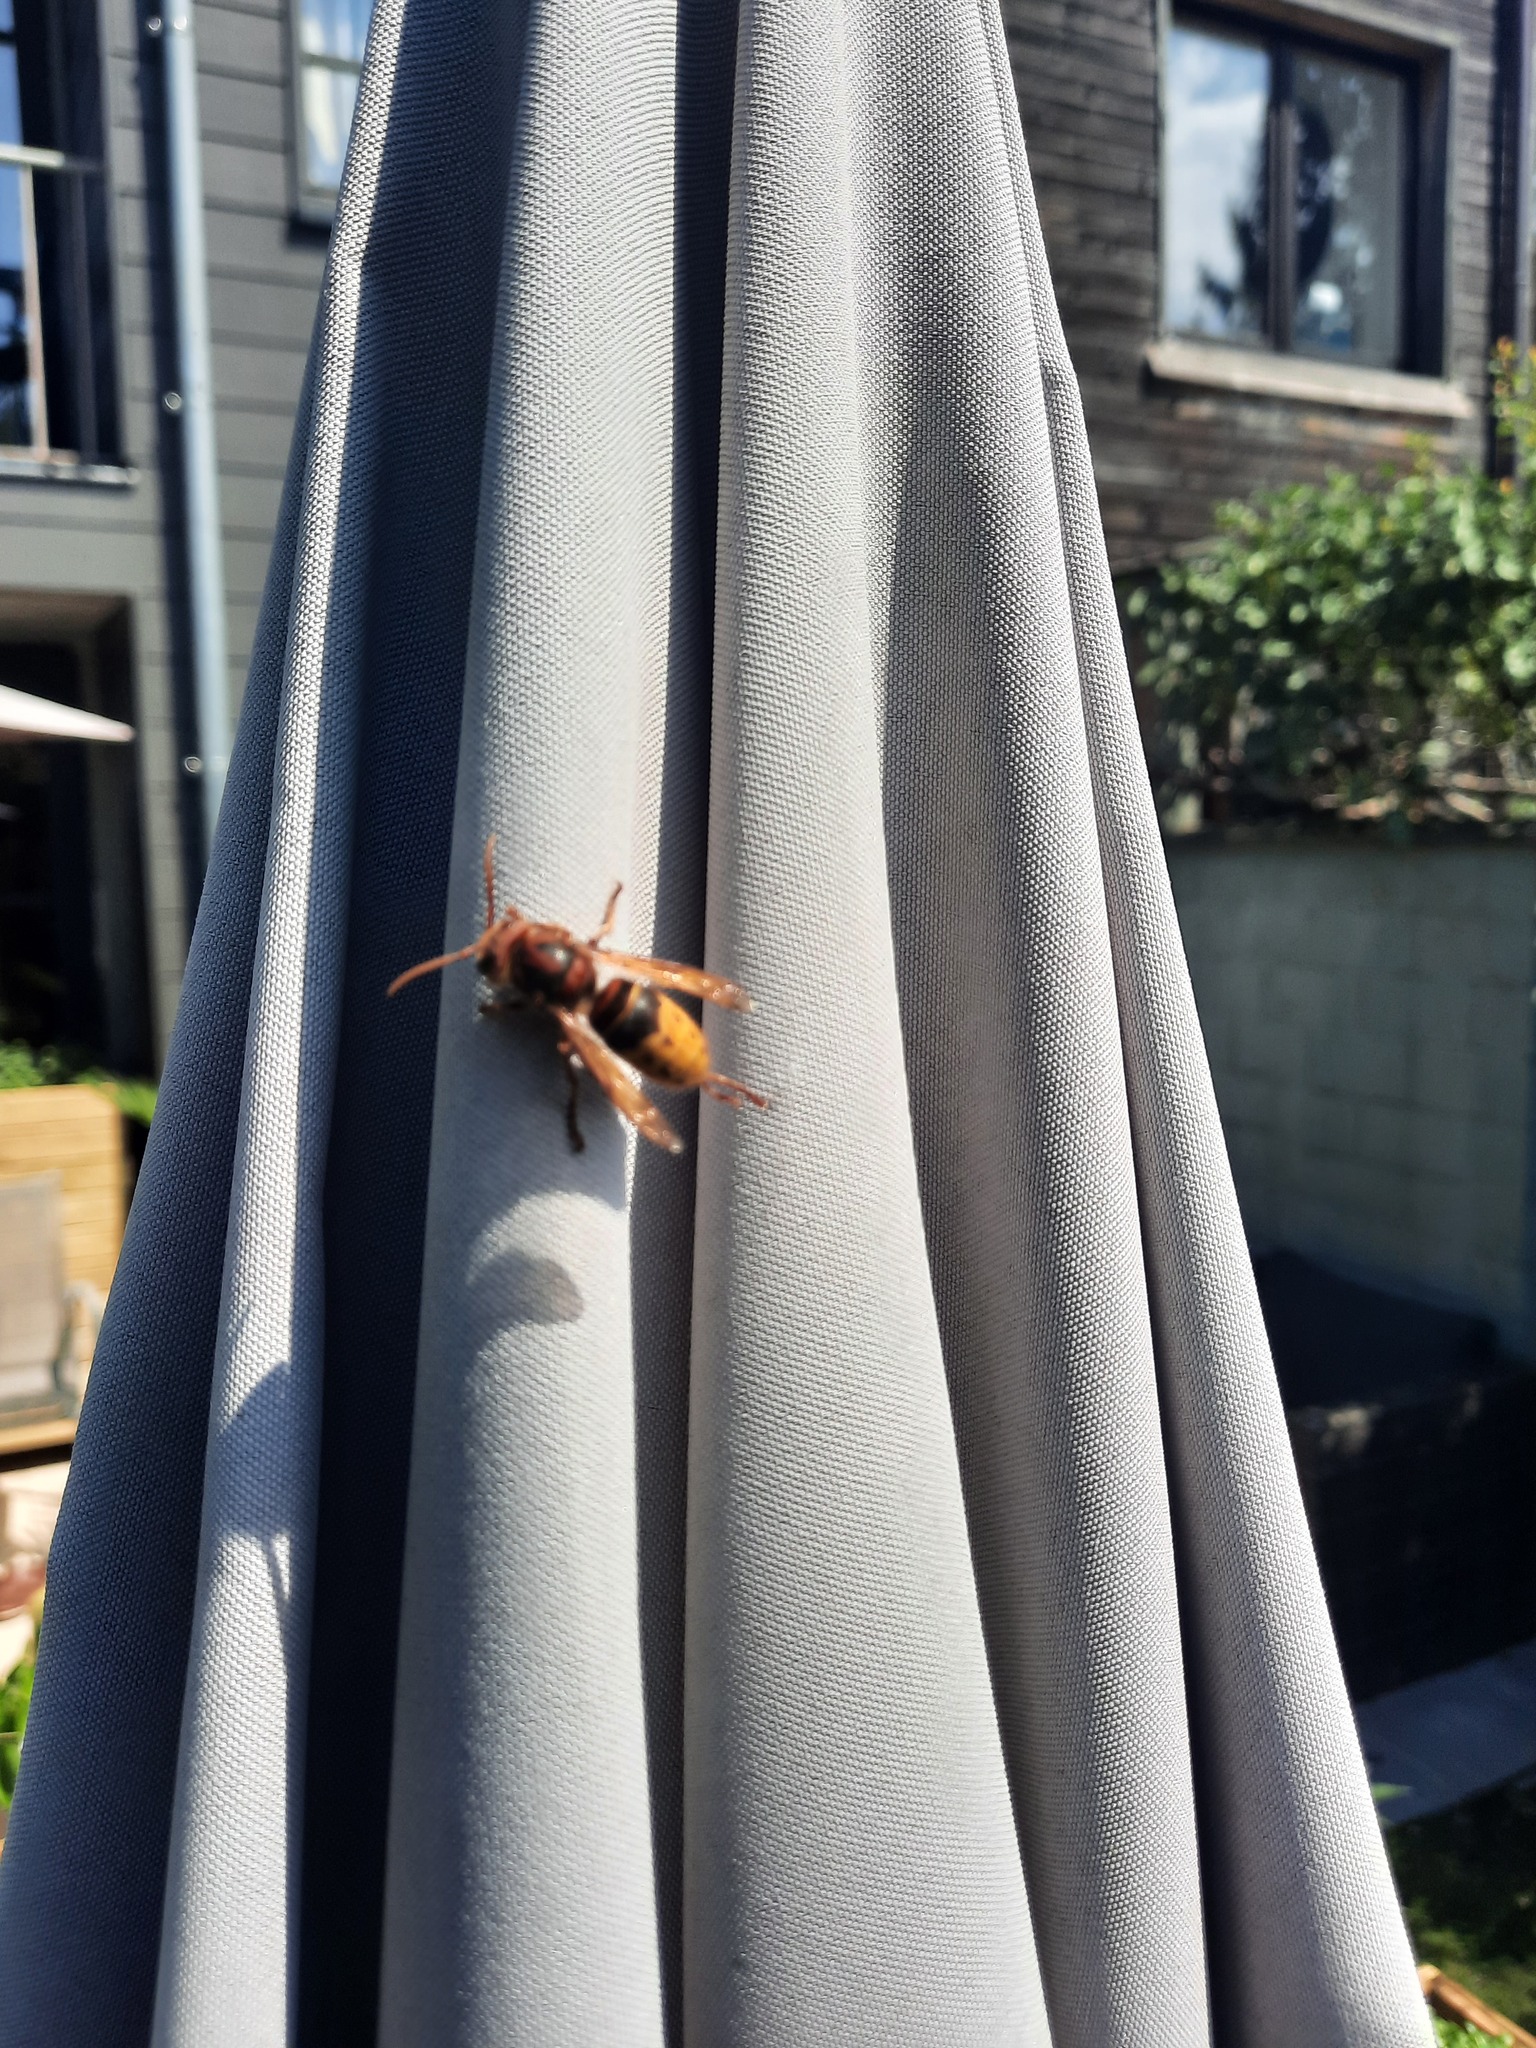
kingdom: Animalia
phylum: Arthropoda
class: Insecta
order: Hymenoptera
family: Vespidae
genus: Vespa
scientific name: Vespa crabro
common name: Hornet
